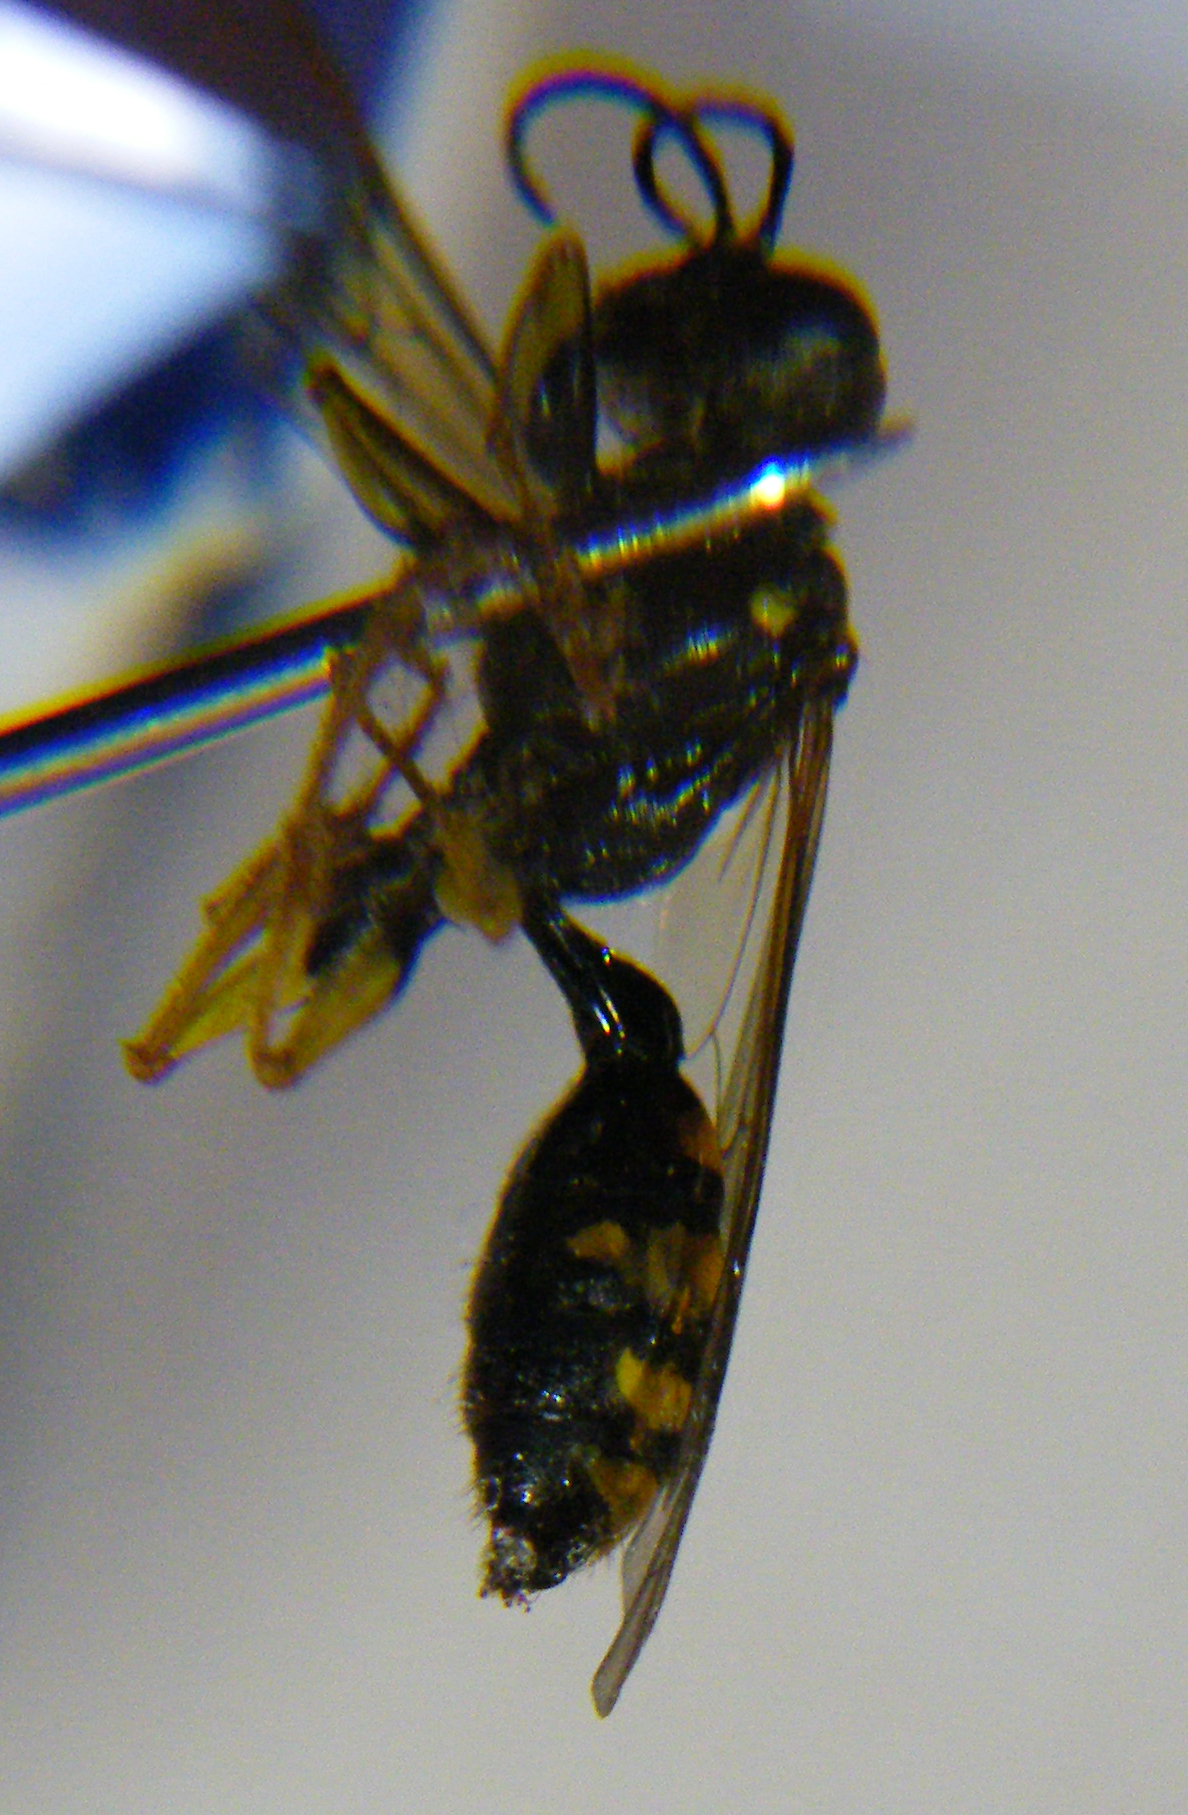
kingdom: Animalia
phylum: Arthropoda
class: Insecta
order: Hymenoptera
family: Crabronidae
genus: Mellinus
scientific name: Mellinus arvensis
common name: Field digger wasp
